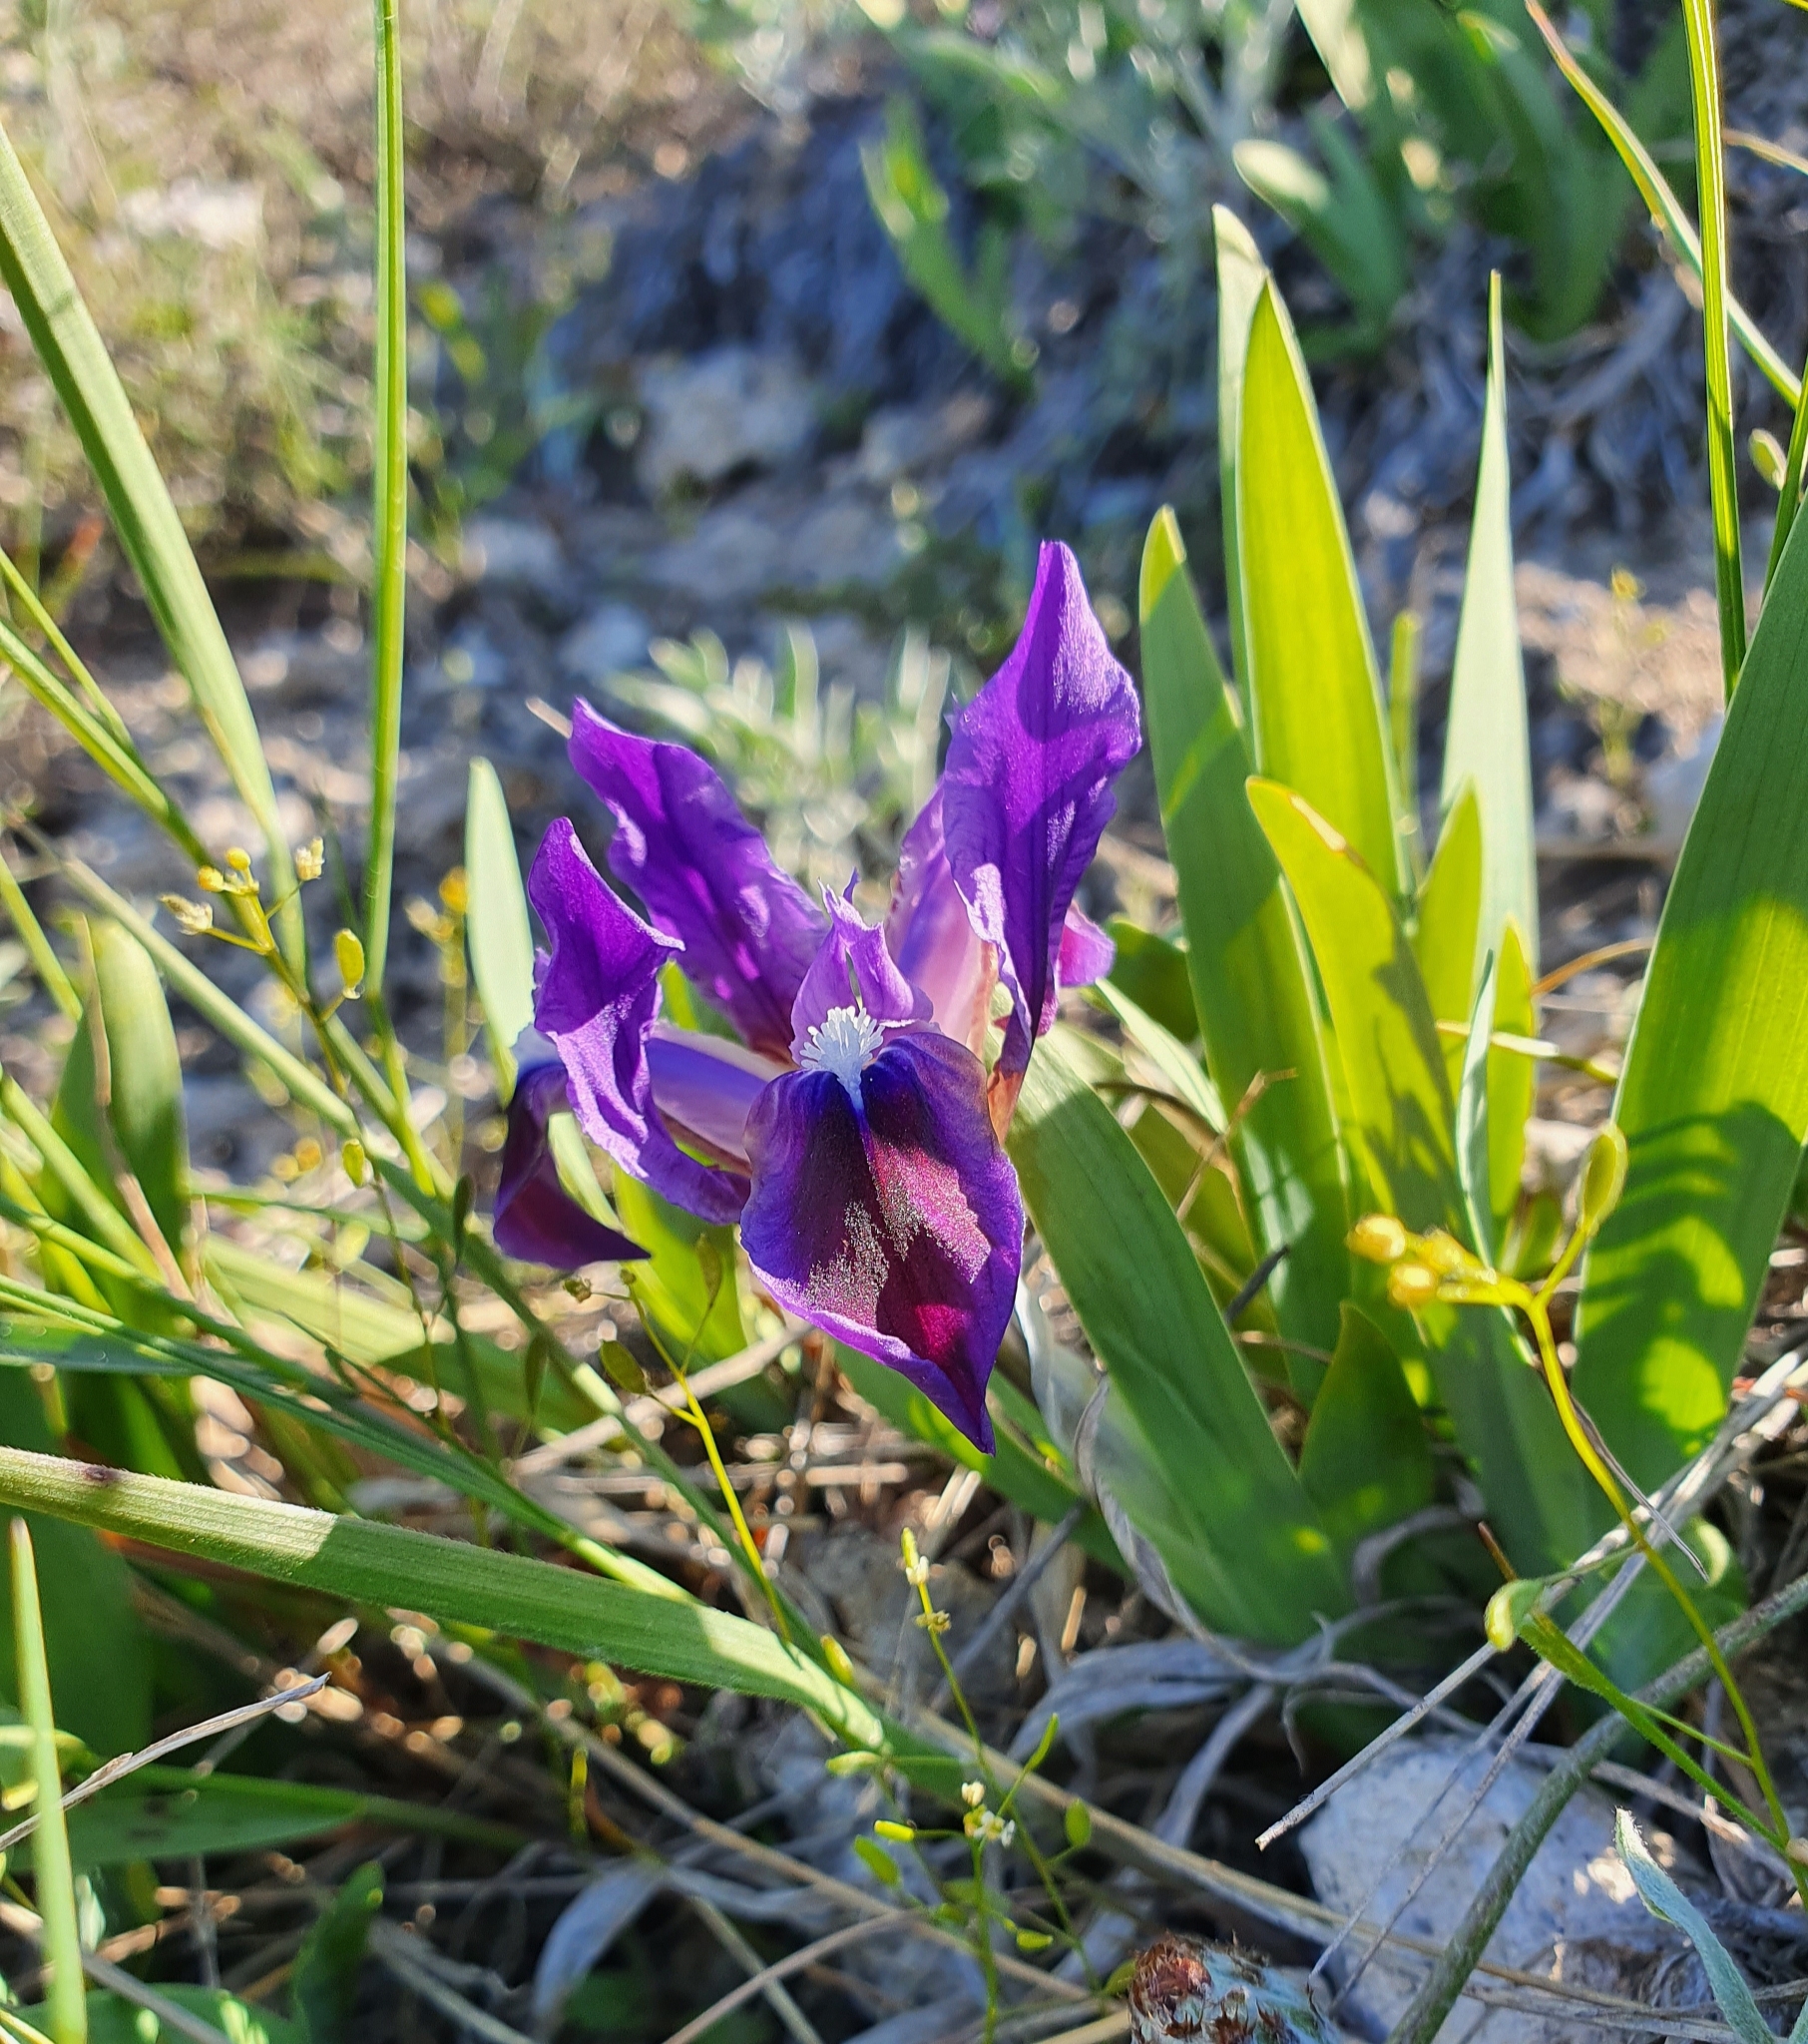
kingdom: Plantae
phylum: Tracheophyta
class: Liliopsida
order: Asparagales
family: Iridaceae
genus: Iris
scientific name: Iris pumila
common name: Dwarf iris
